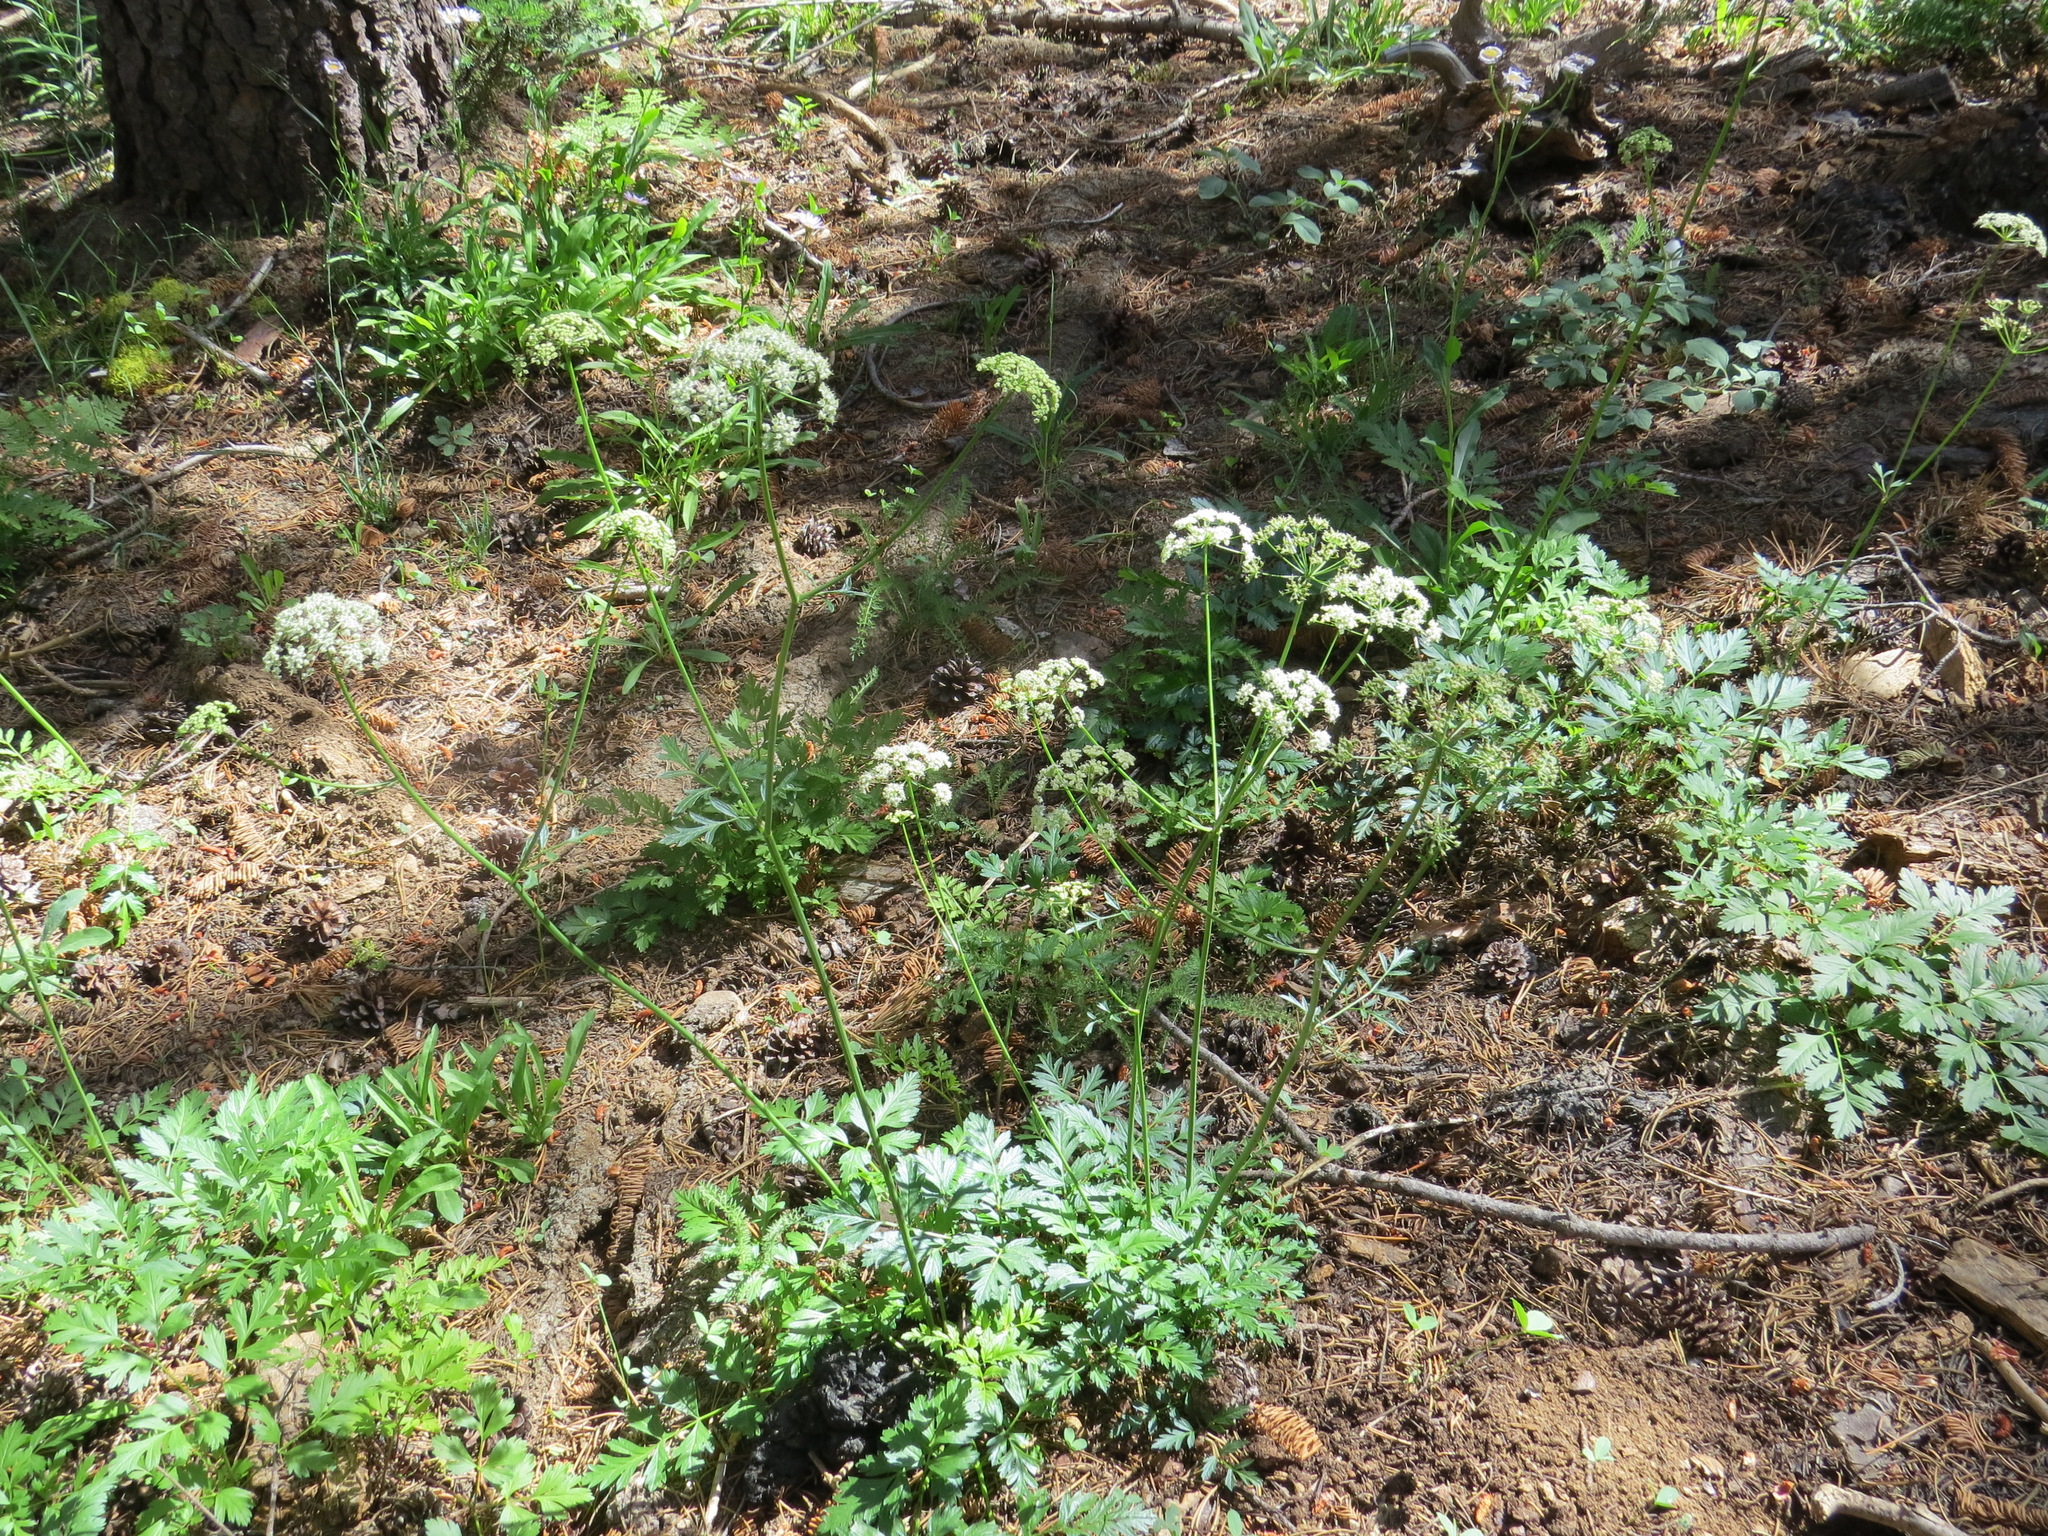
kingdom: Plantae
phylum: Tracheophyta
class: Magnoliopsida
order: Apiales
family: Apiaceae
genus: Ligusticum
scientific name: Ligusticum grayi
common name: Gray's licorice-root
